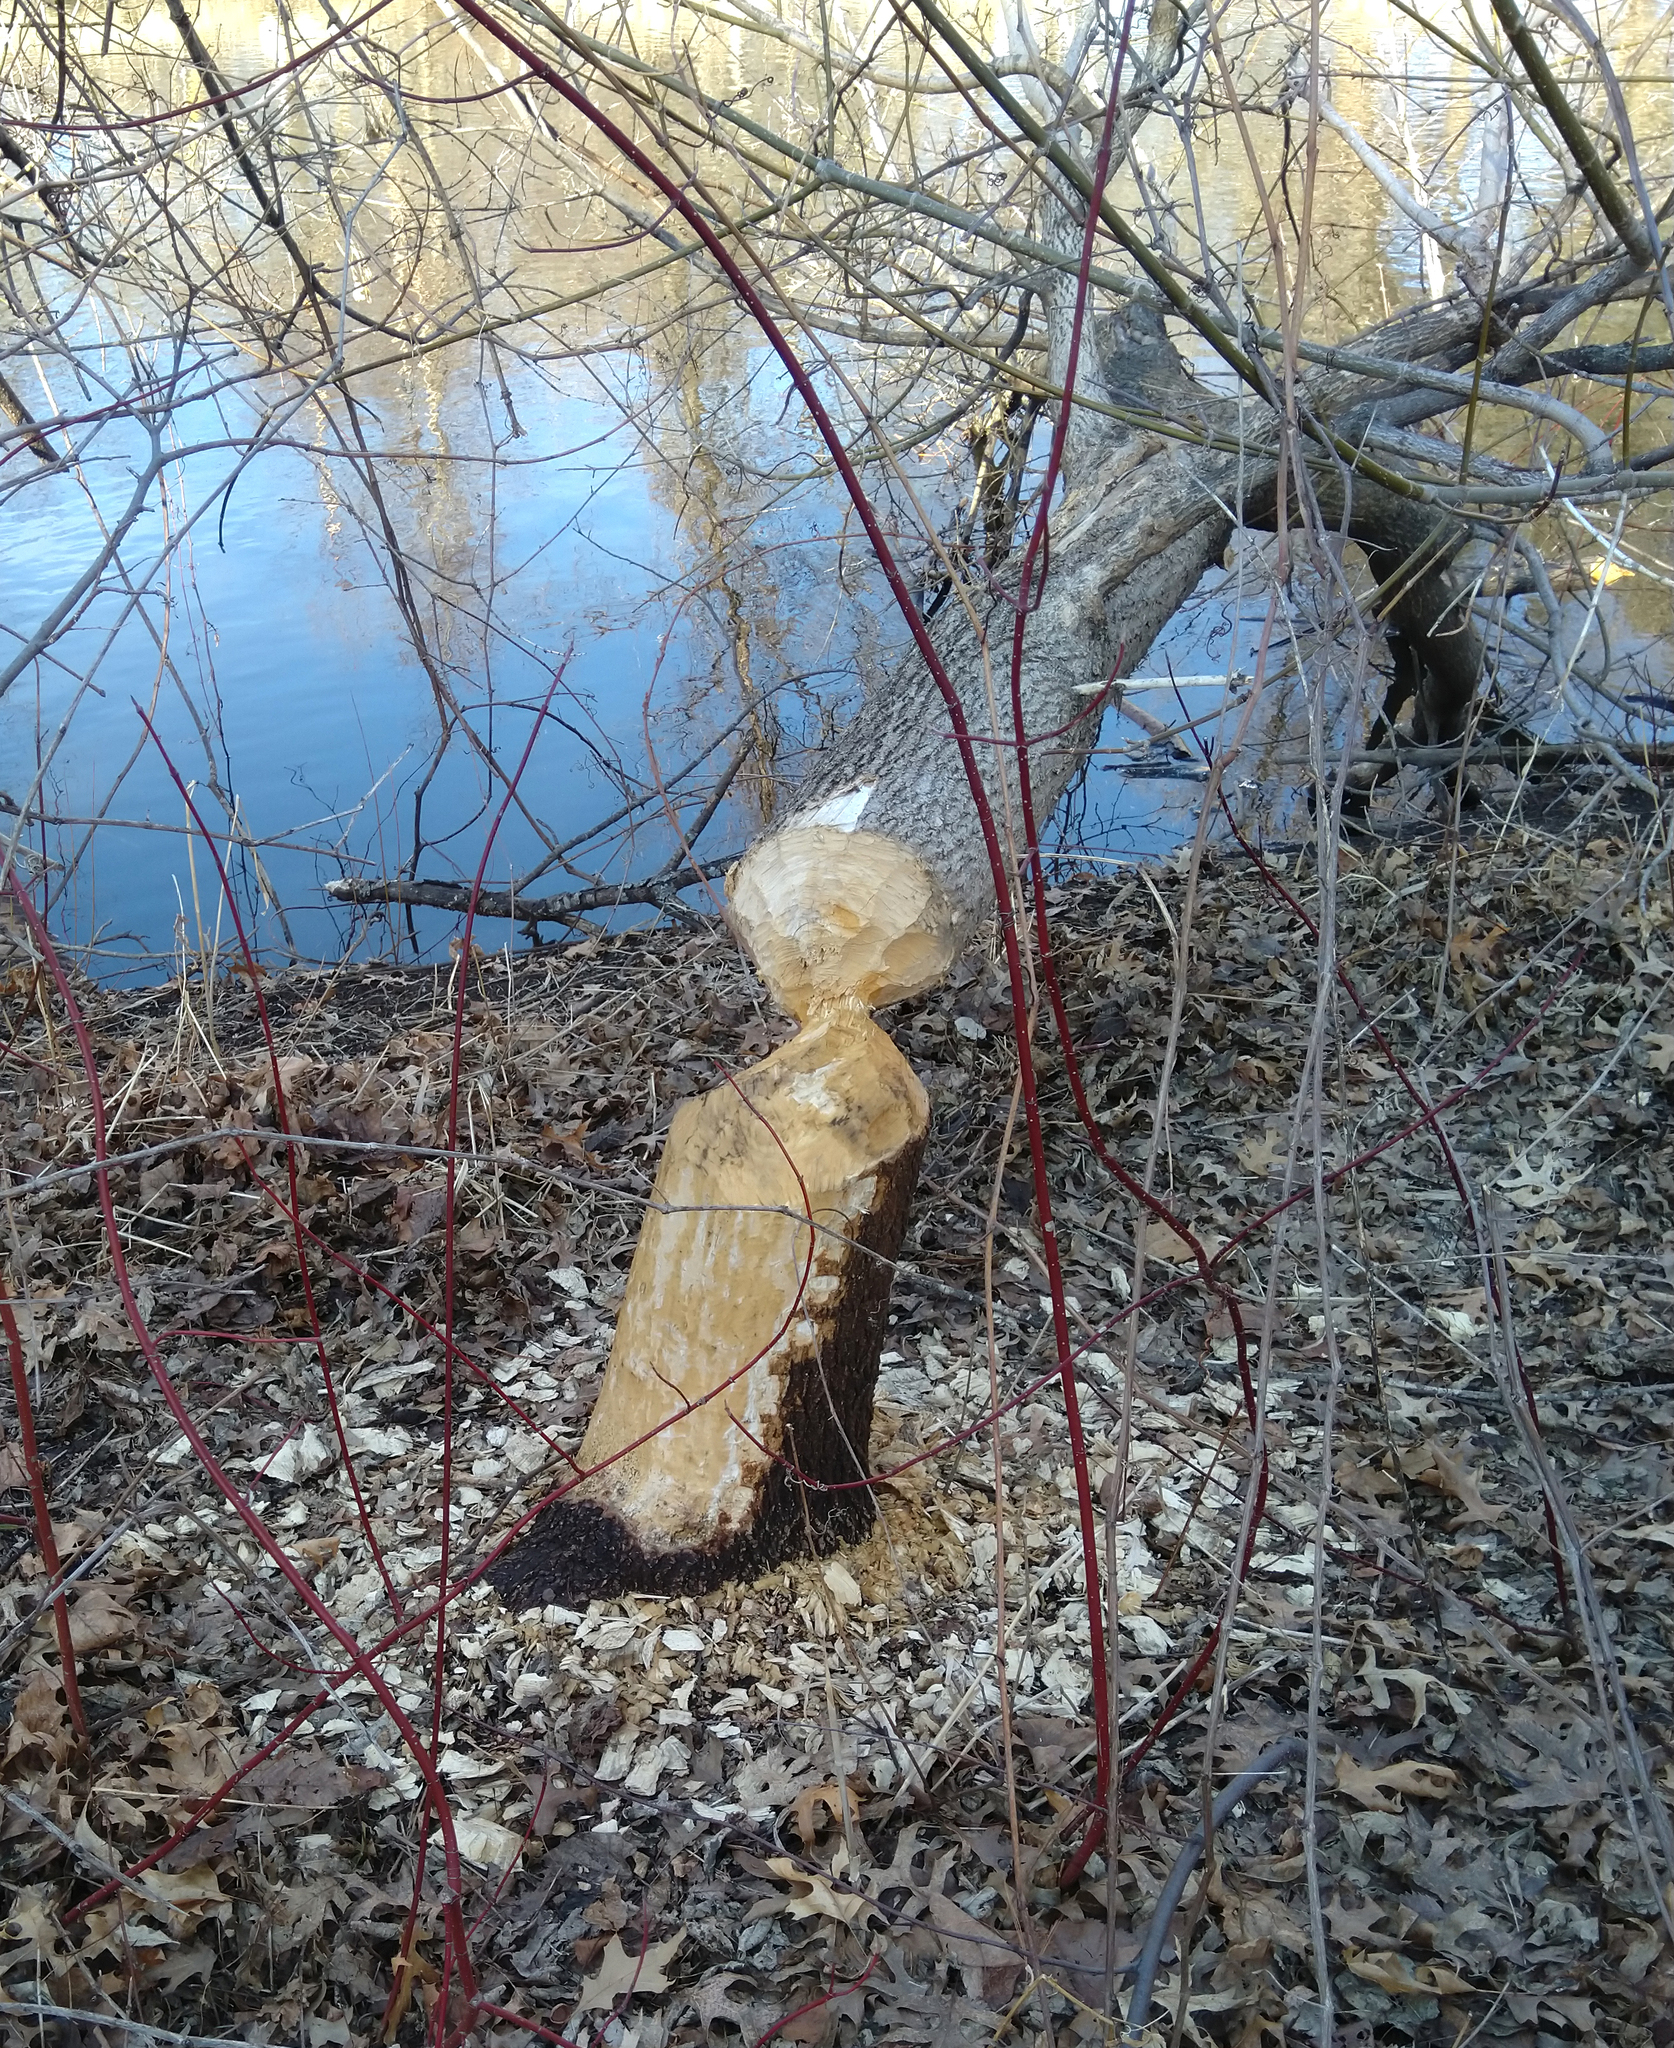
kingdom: Animalia
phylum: Chordata
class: Mammalia
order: Rodentia
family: Castoridae
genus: Castor
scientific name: Castor canadensis
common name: American beaver
